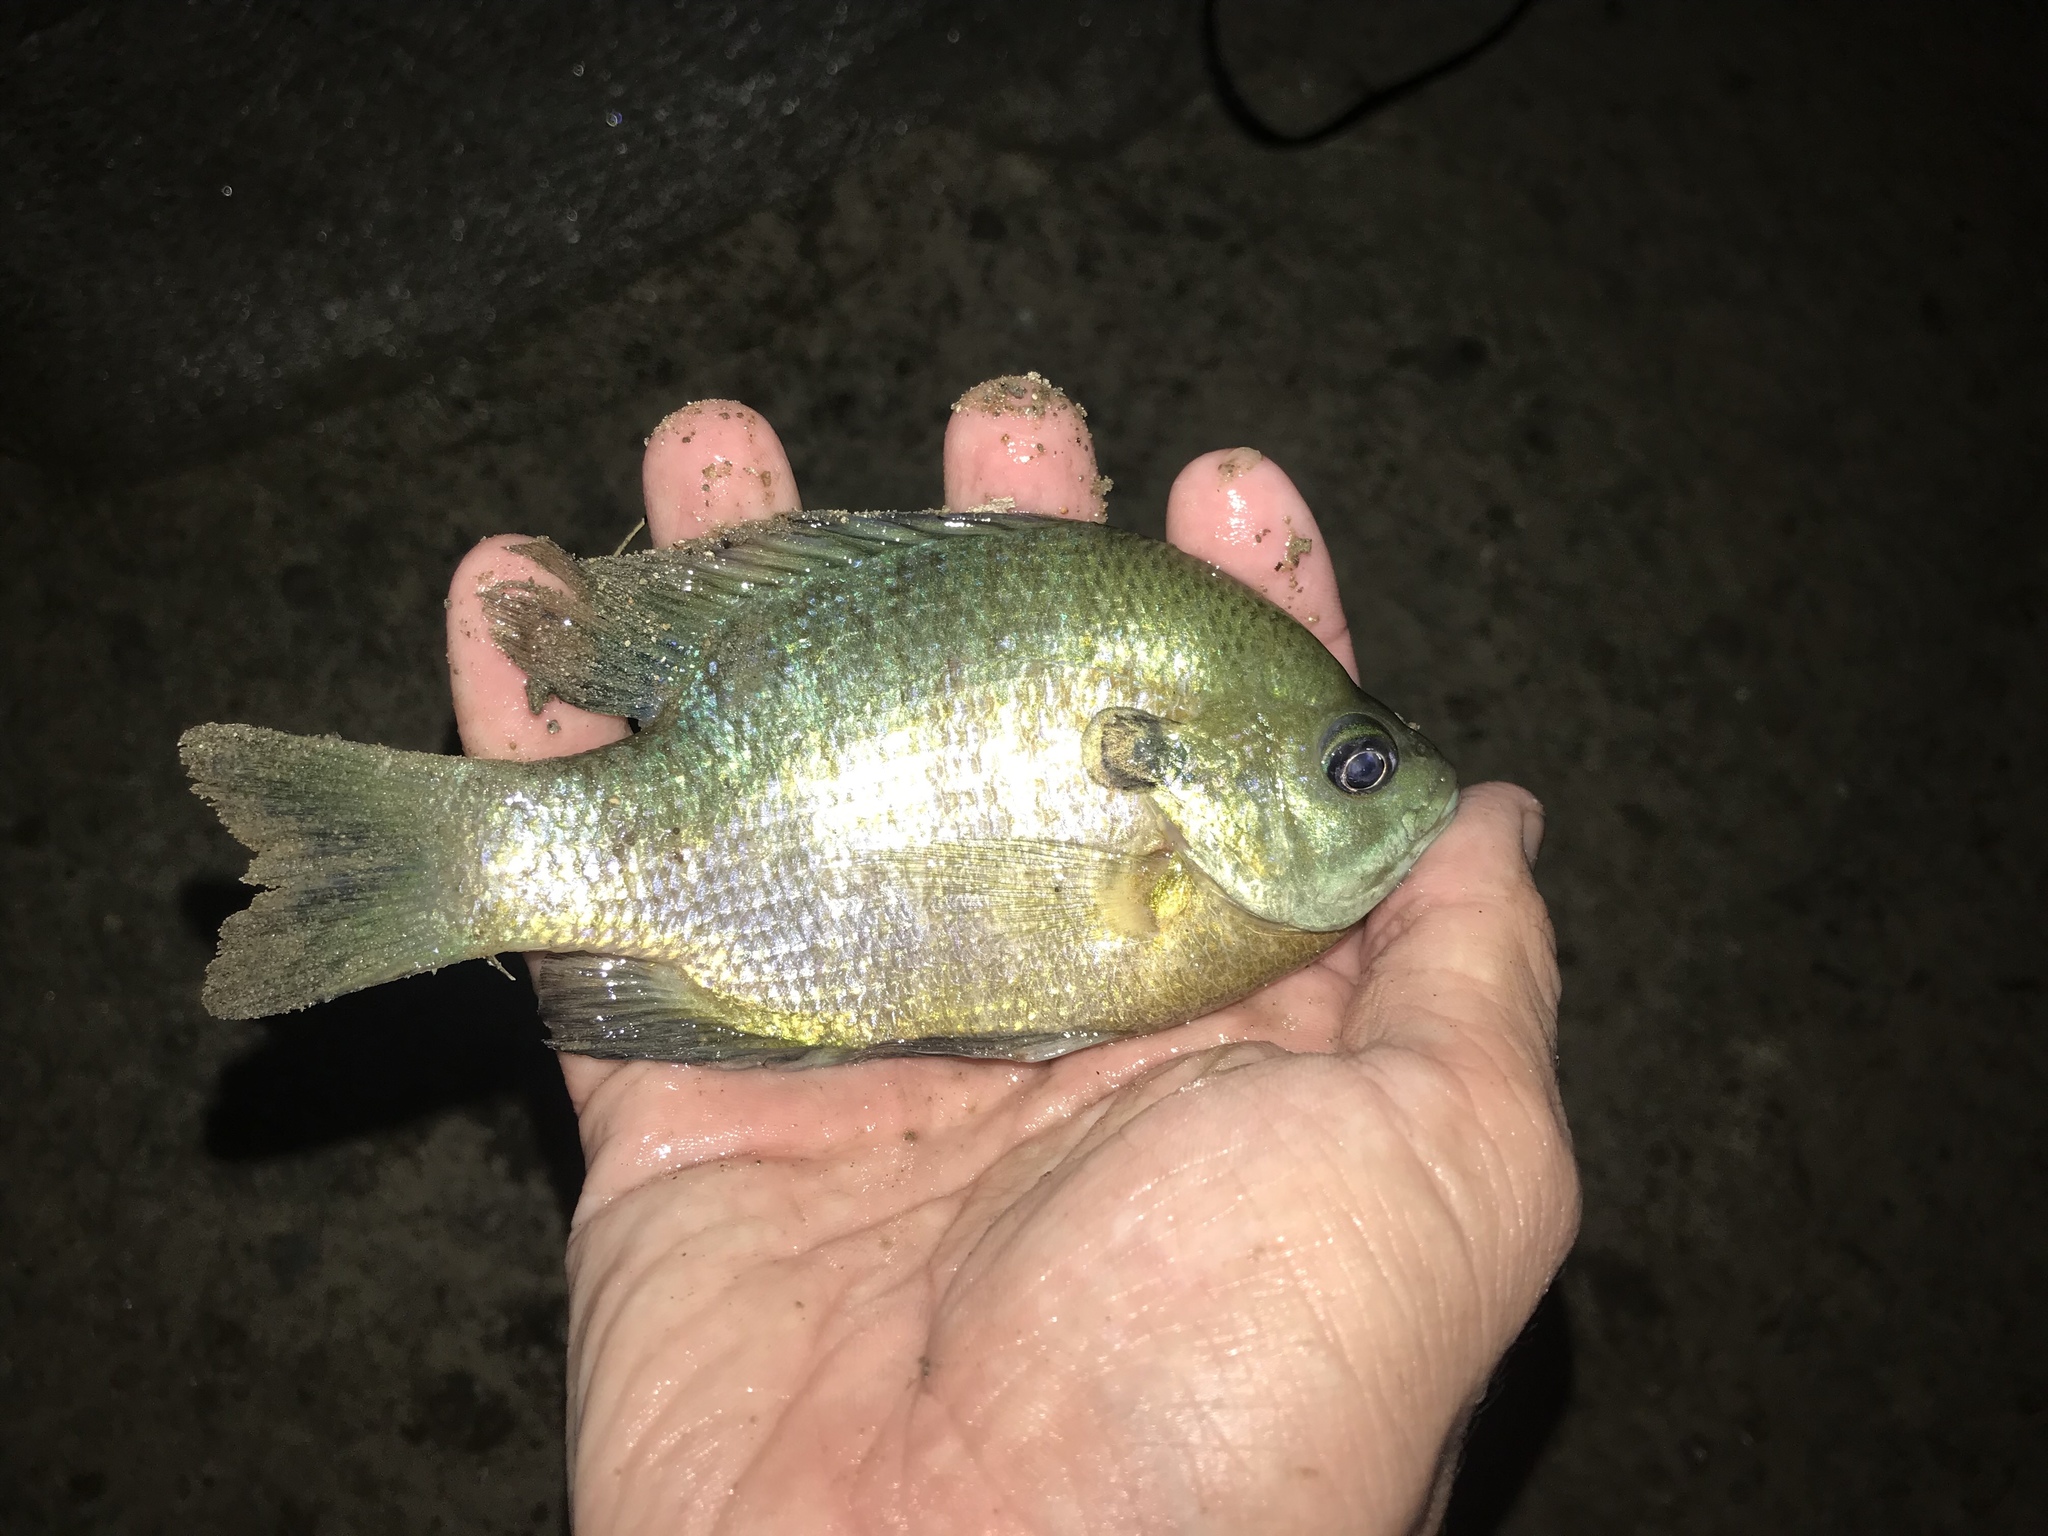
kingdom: Animalia
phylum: Chordata
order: Perciformes
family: Centrarchidae
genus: Lepomis
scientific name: Lepomis macrochirus
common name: Bluegill
